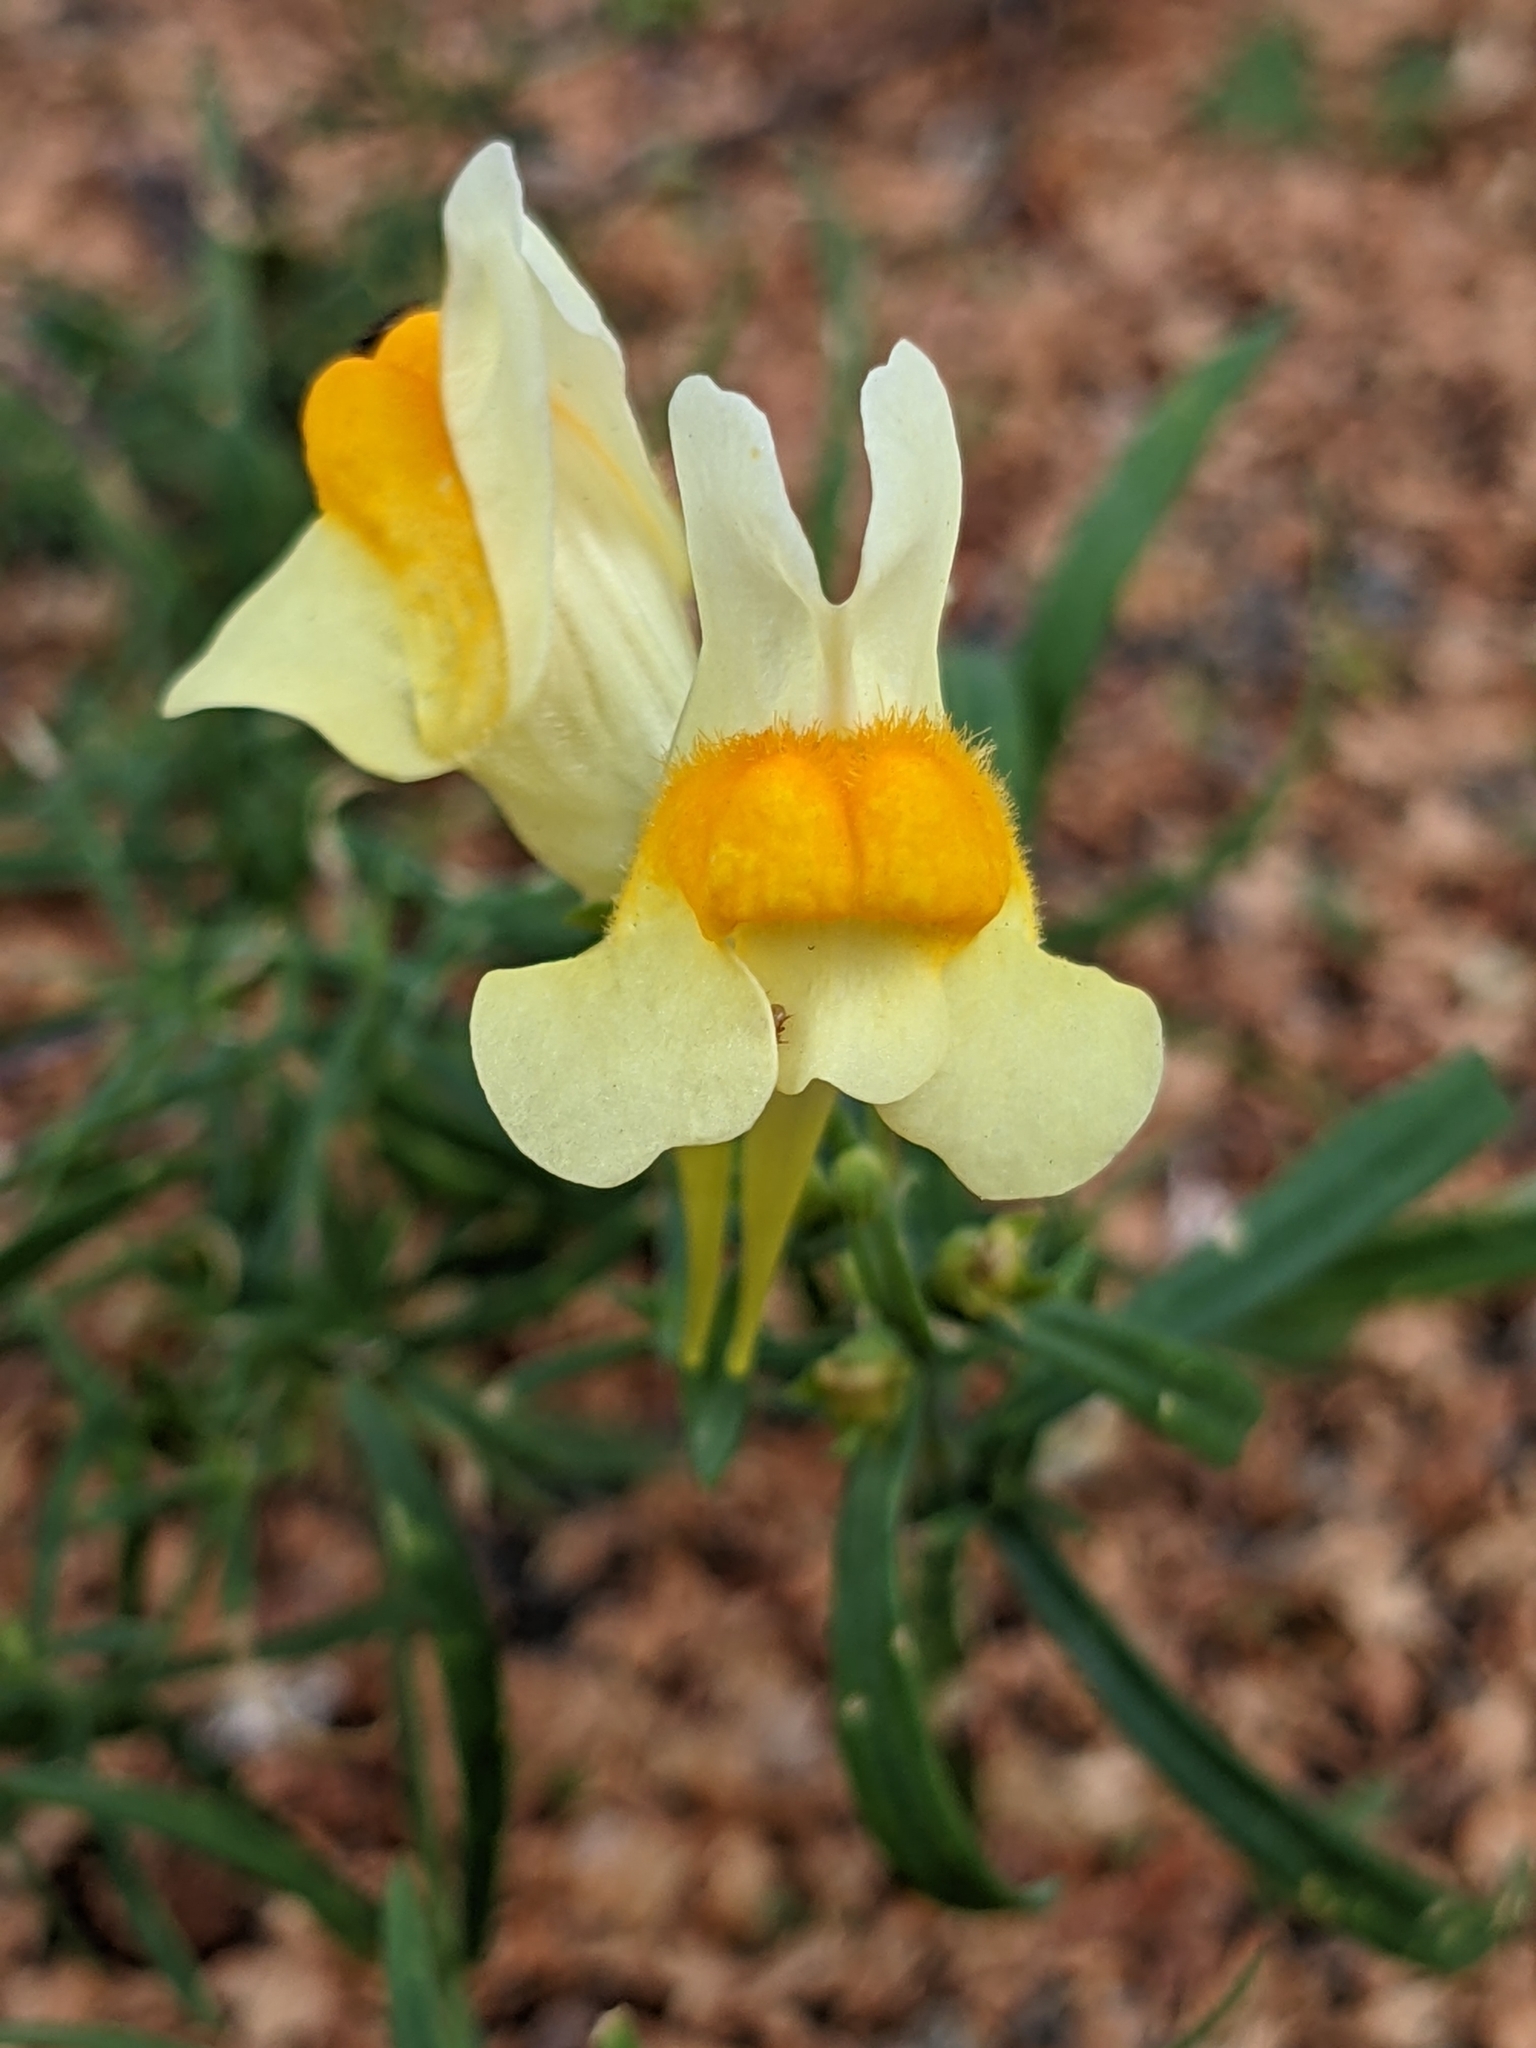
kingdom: Plantae
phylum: Tracheophyta
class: Magnoliopsida
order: Lamiales
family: Plantaginaceae
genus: Linaria
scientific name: Linaria vulgaris
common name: Butter and eggs
